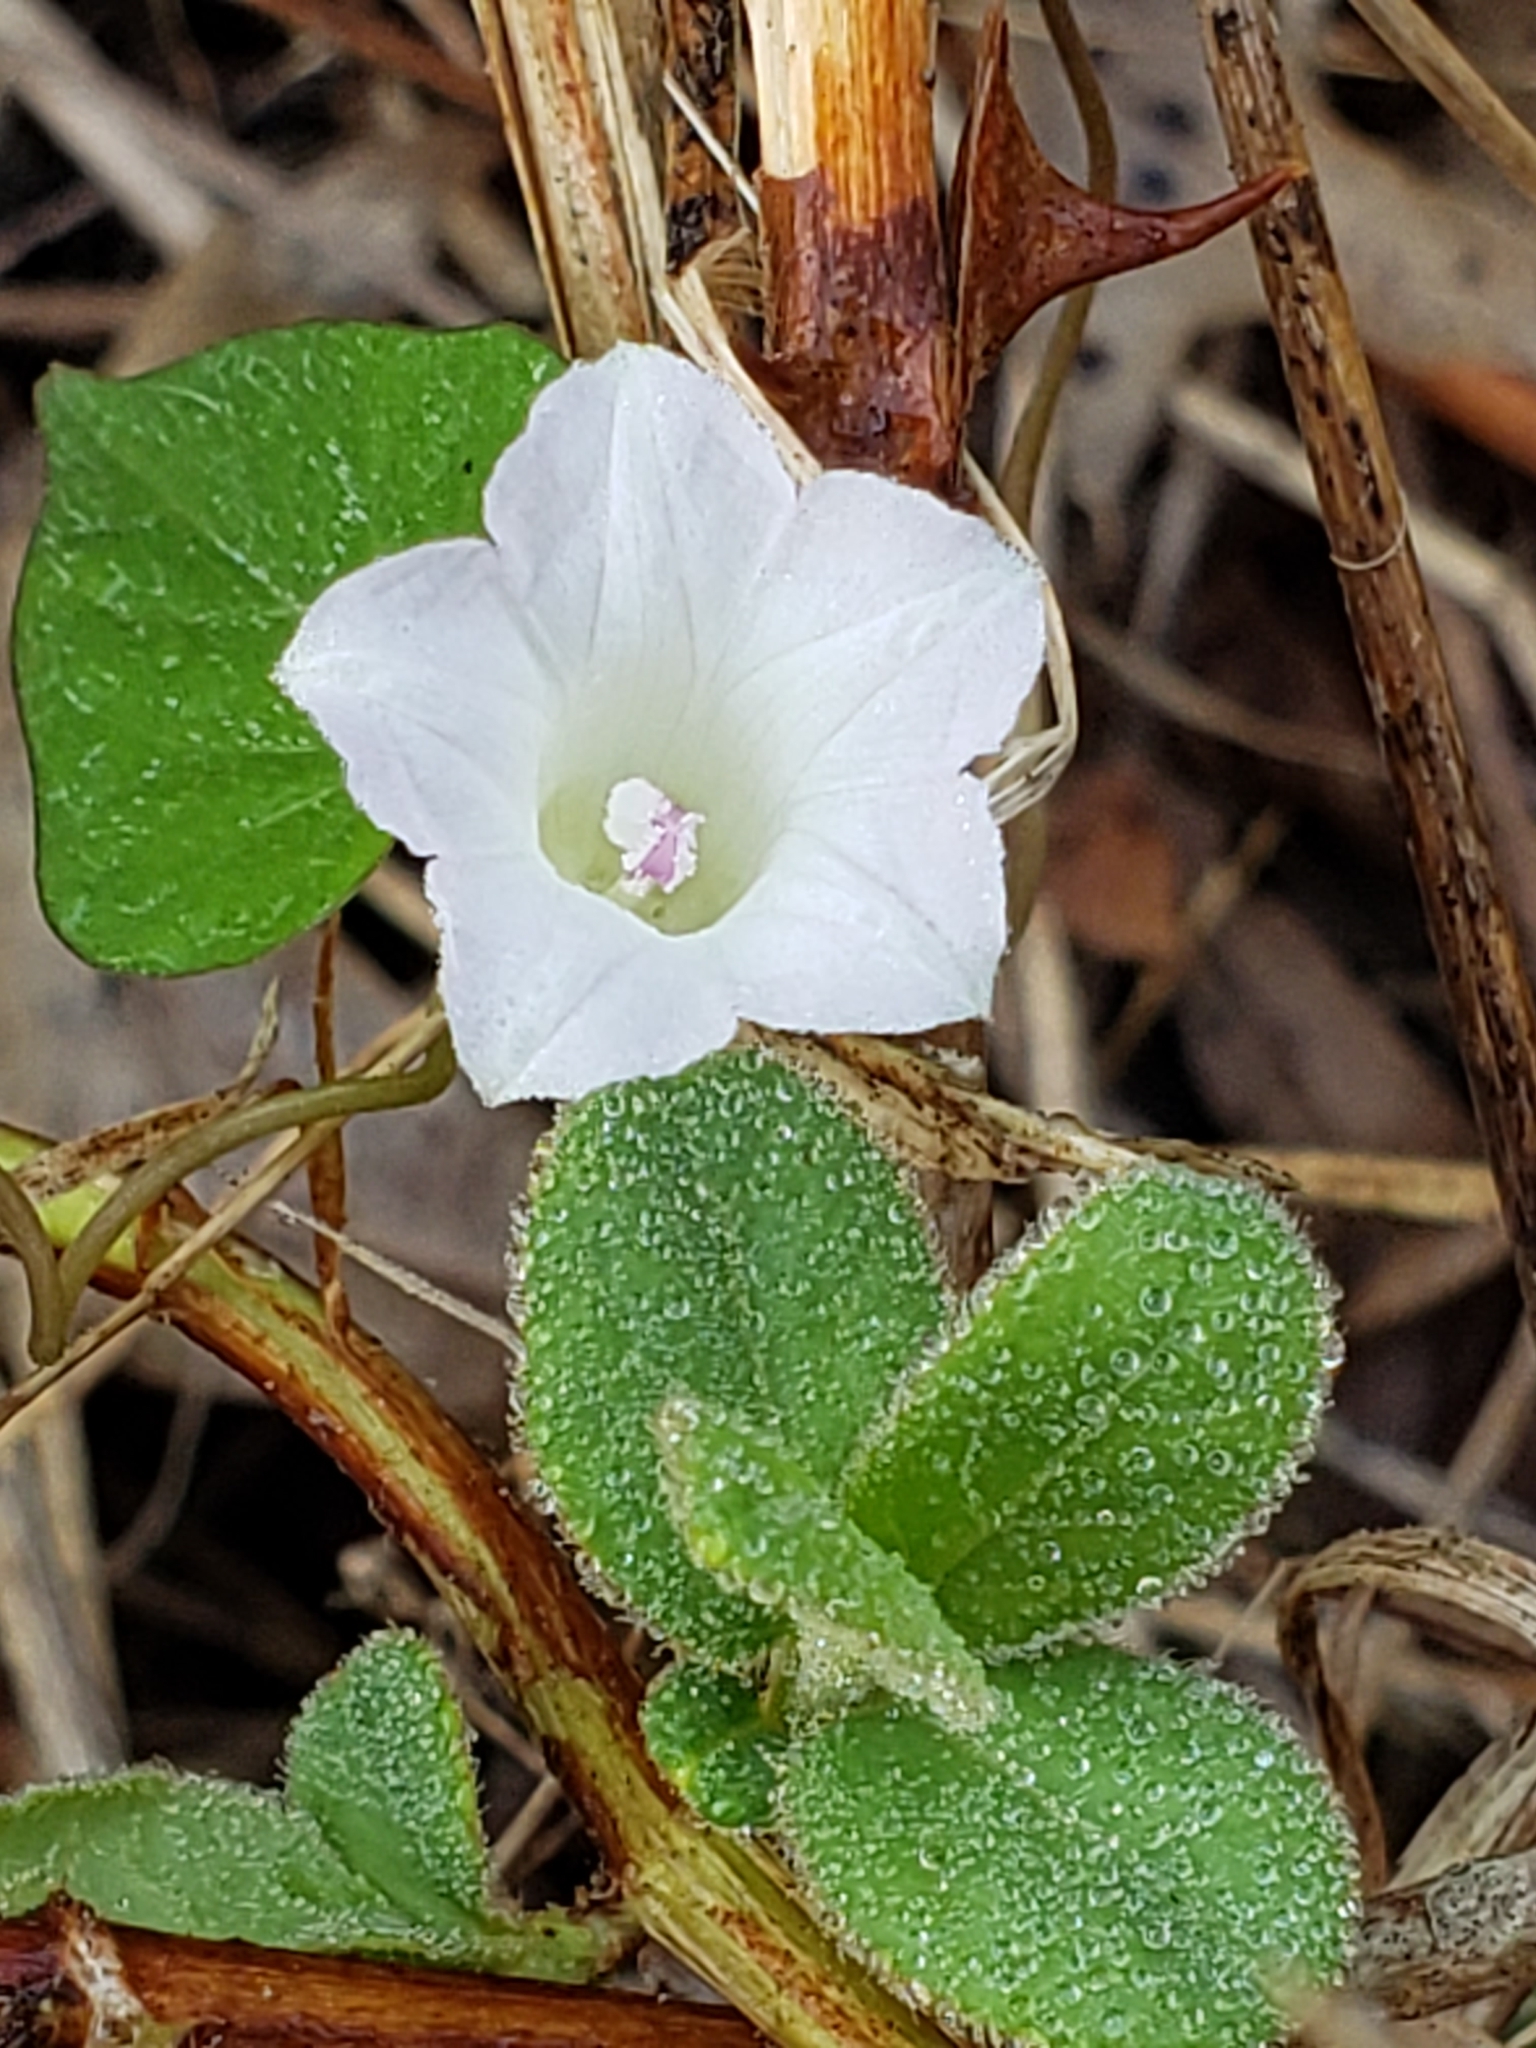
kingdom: Plantae
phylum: Tracheophyta
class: Magnoliopsida
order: Solanales
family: Convolvulaceae
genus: Ipomoea
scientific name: Ipomoea lacunosa
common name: White morning-glory
